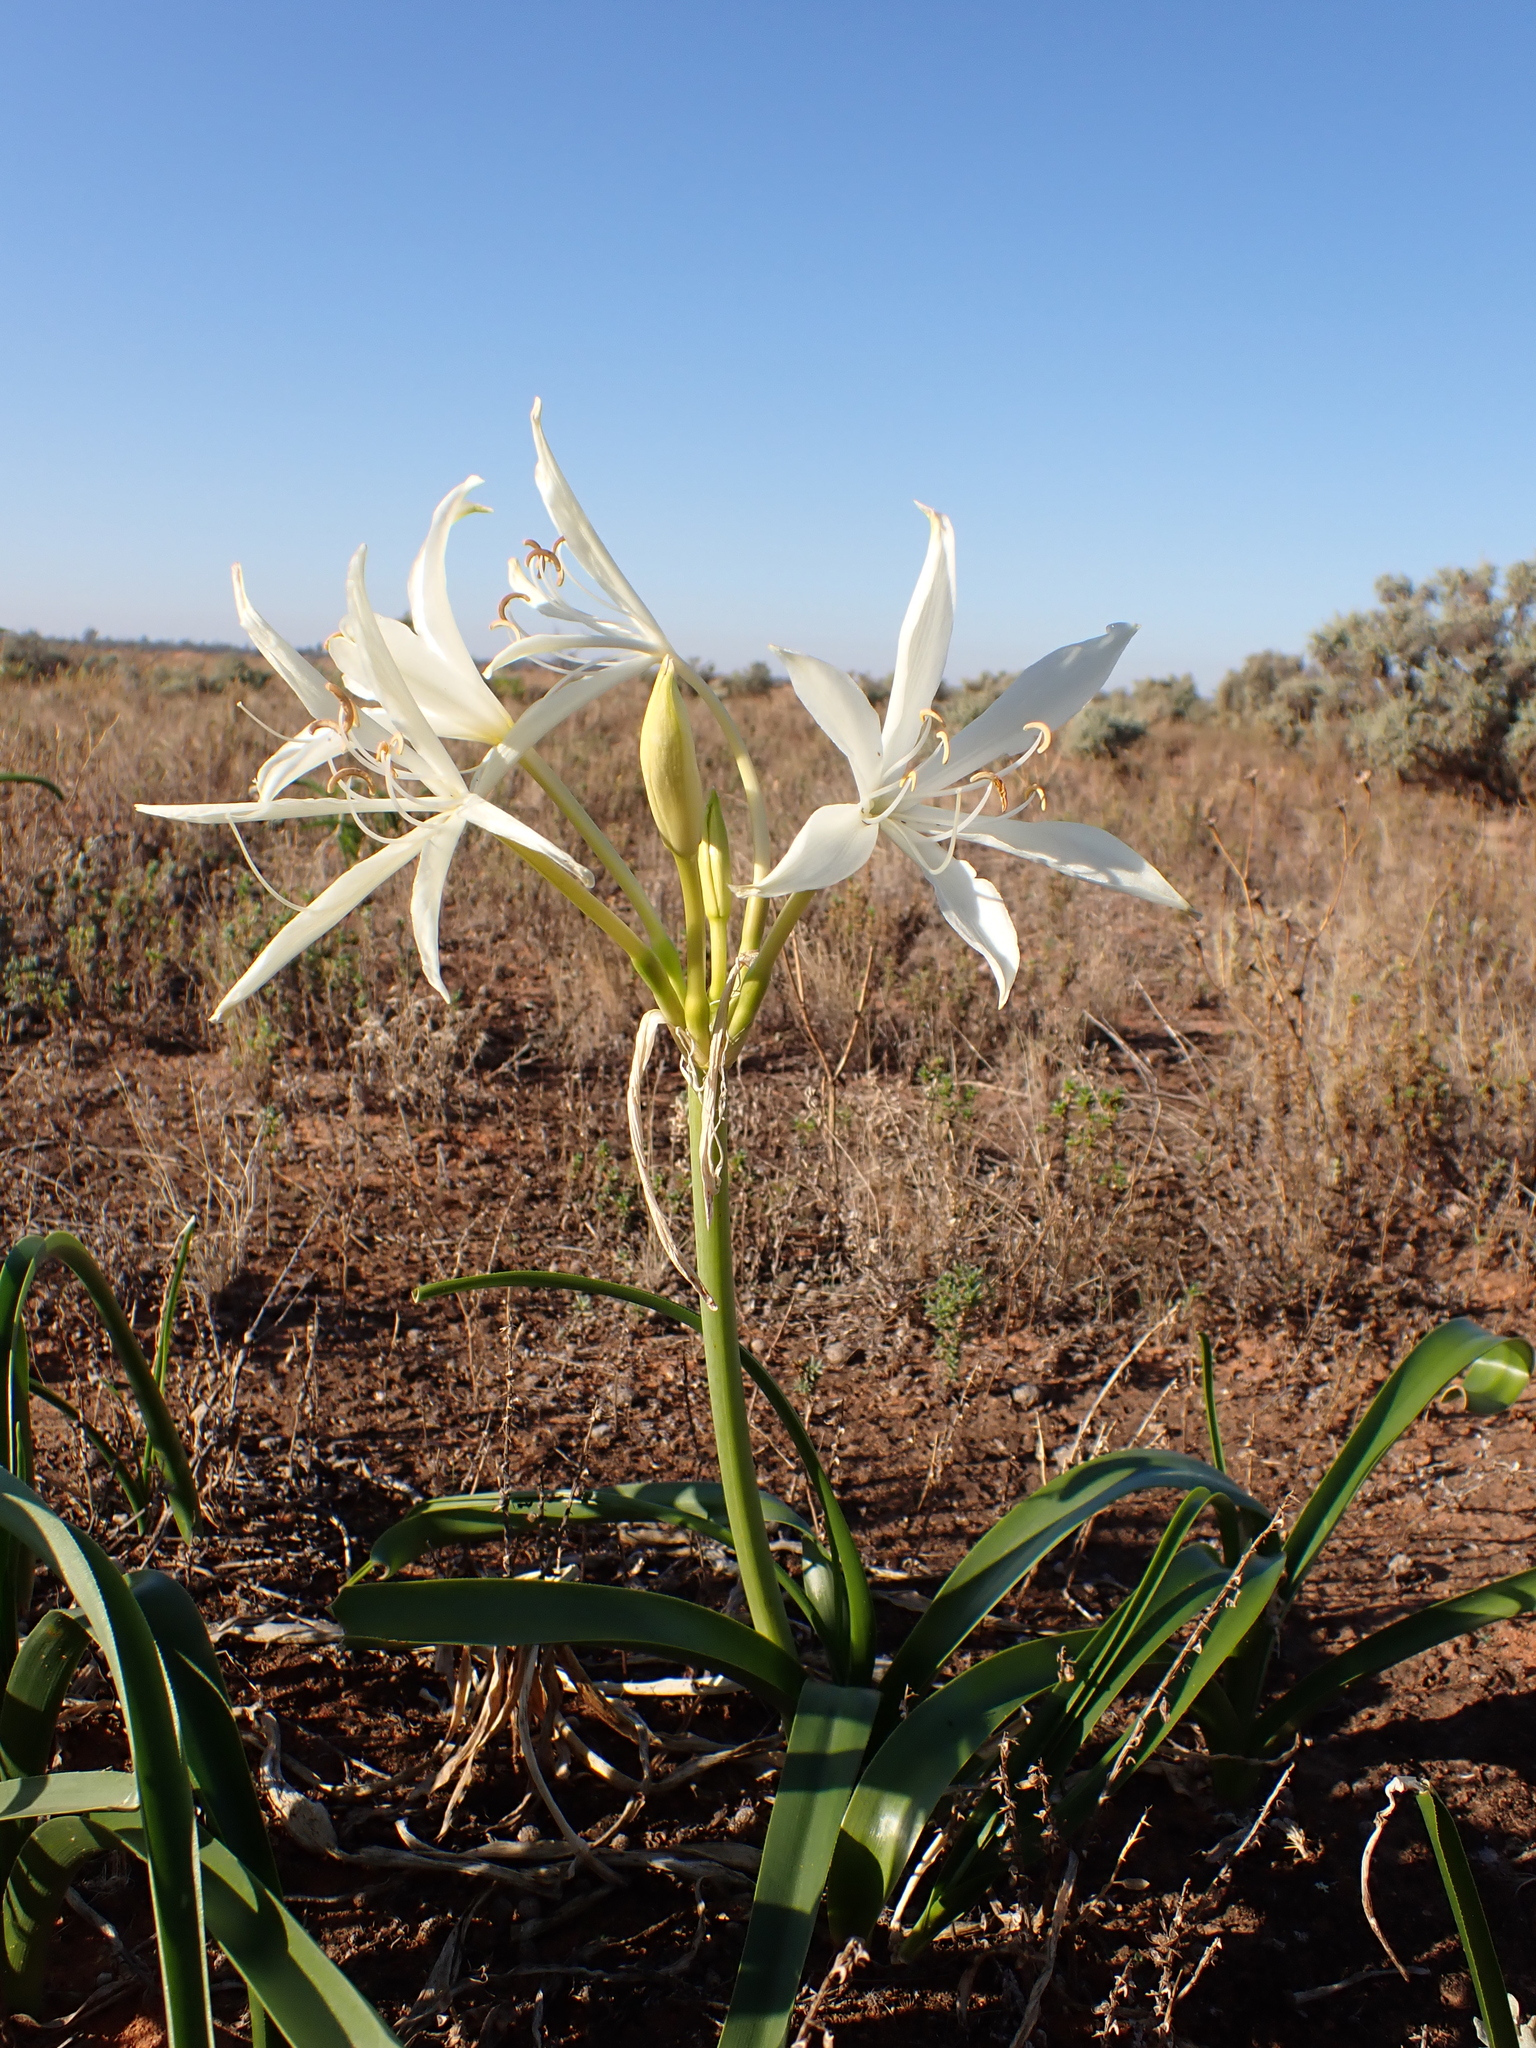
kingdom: Plantae
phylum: Tracheophyta
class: Liliopsida
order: Asparagales
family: Amaryllidaceae
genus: Crinum
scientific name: Crinum flaccidum
